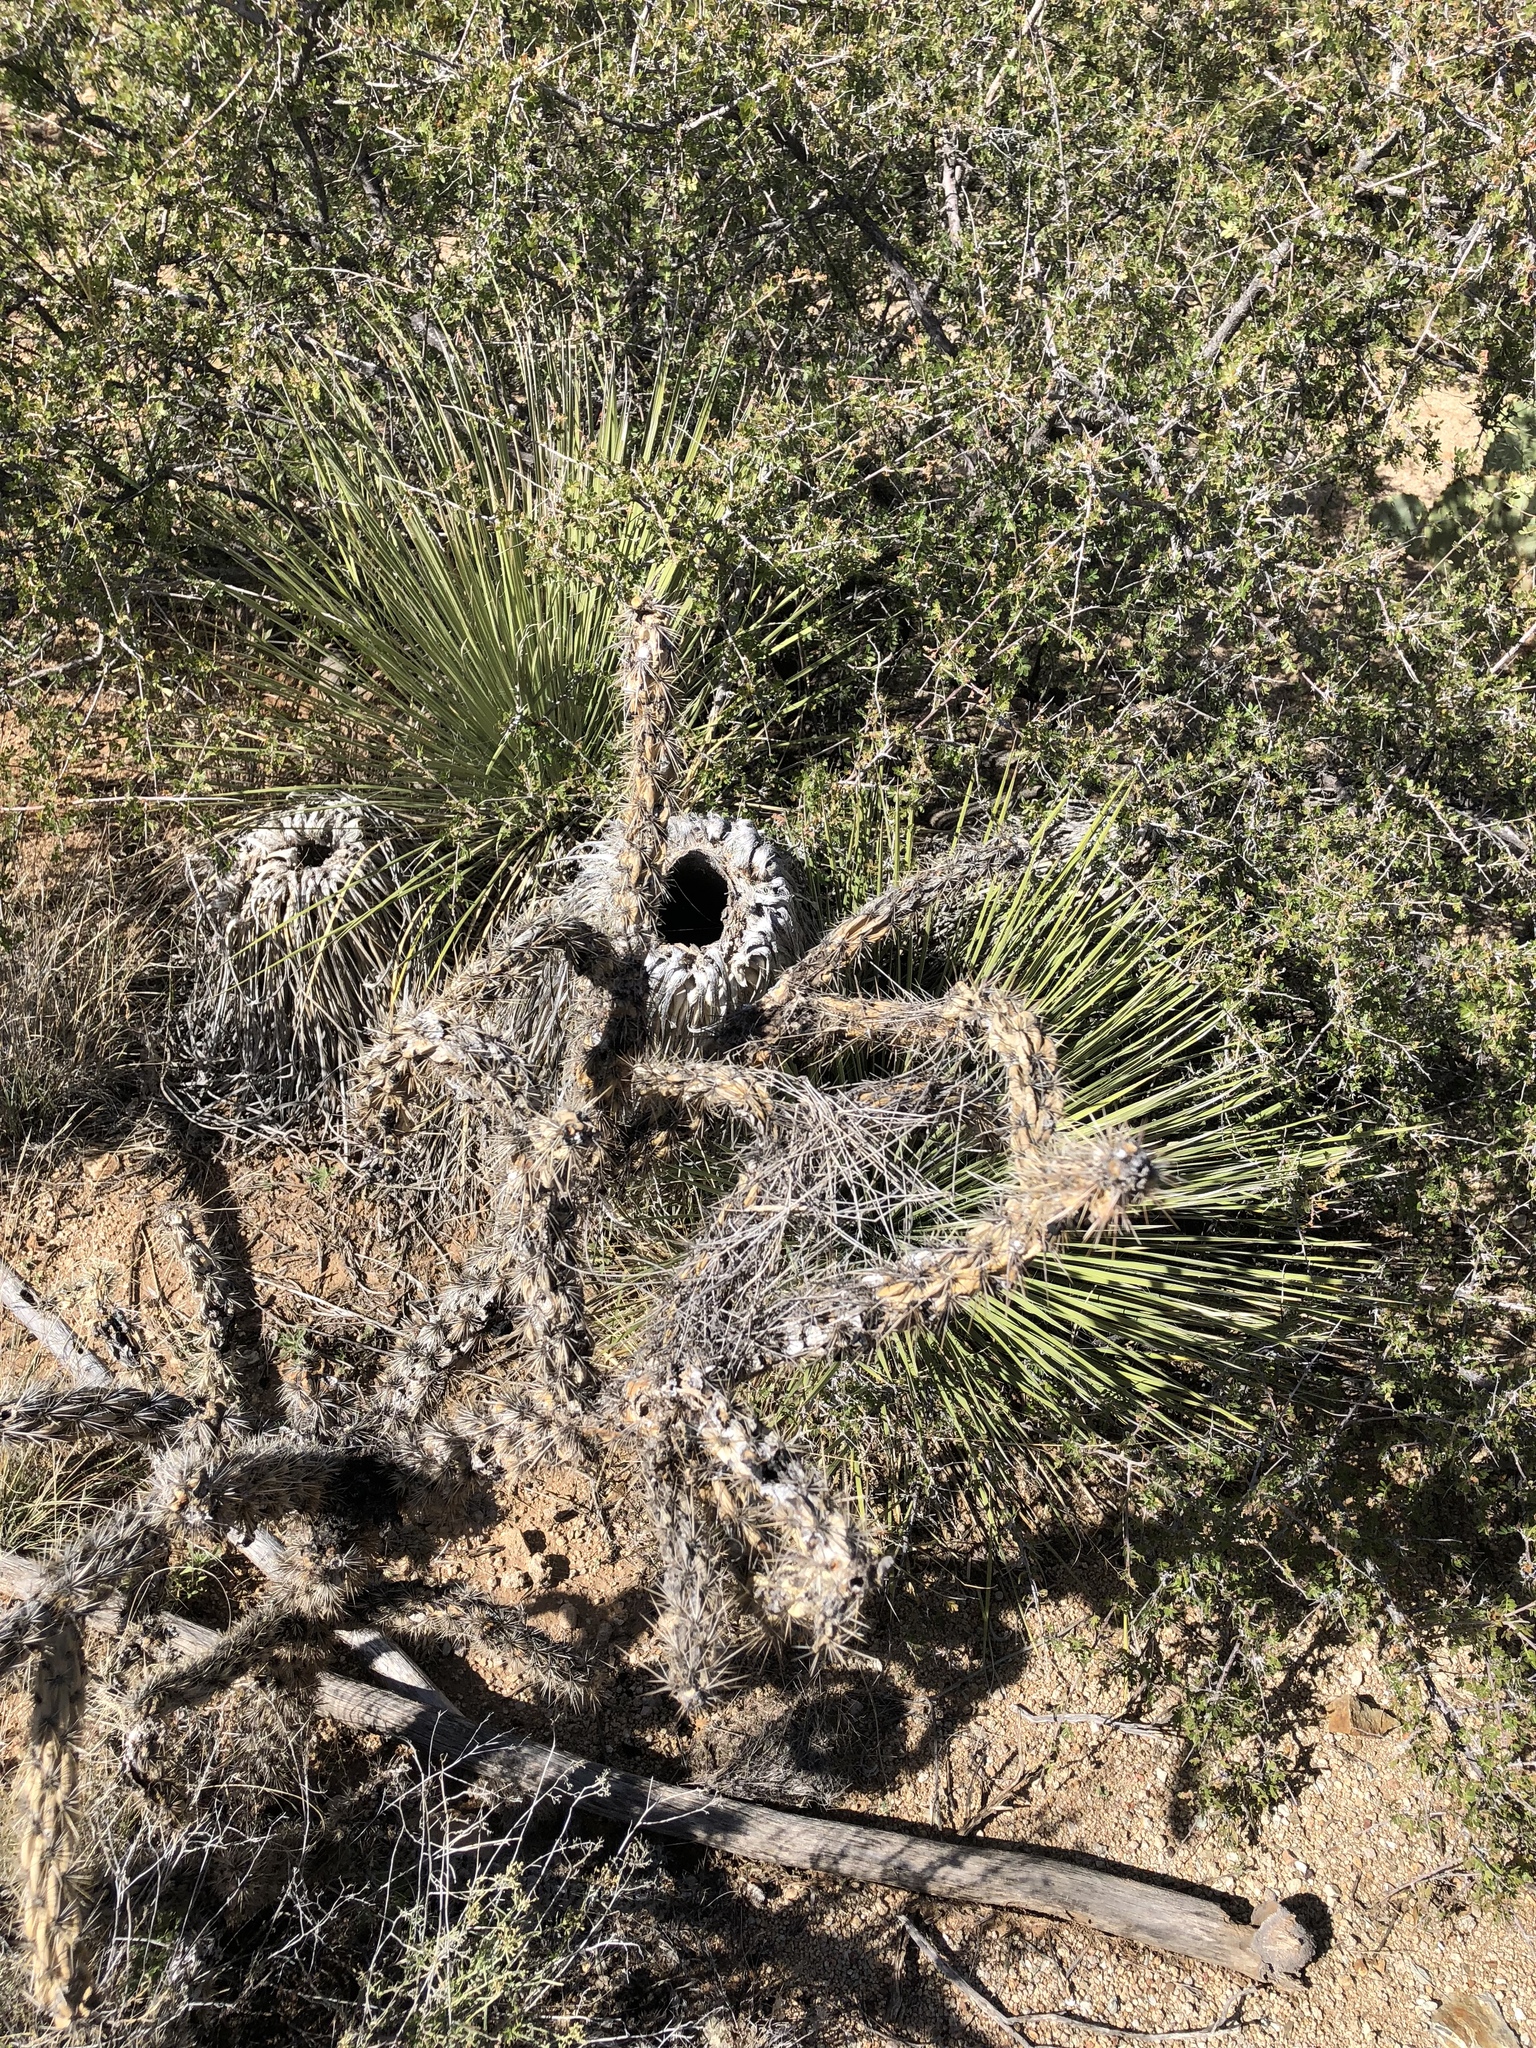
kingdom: Plantae
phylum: Tracheophyta
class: Magnoliopsida
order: Caryophyllales
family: Cactaceae
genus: Cylindropuntia
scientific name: Cylindropuntia imbricata
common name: Candelabrum cactus
